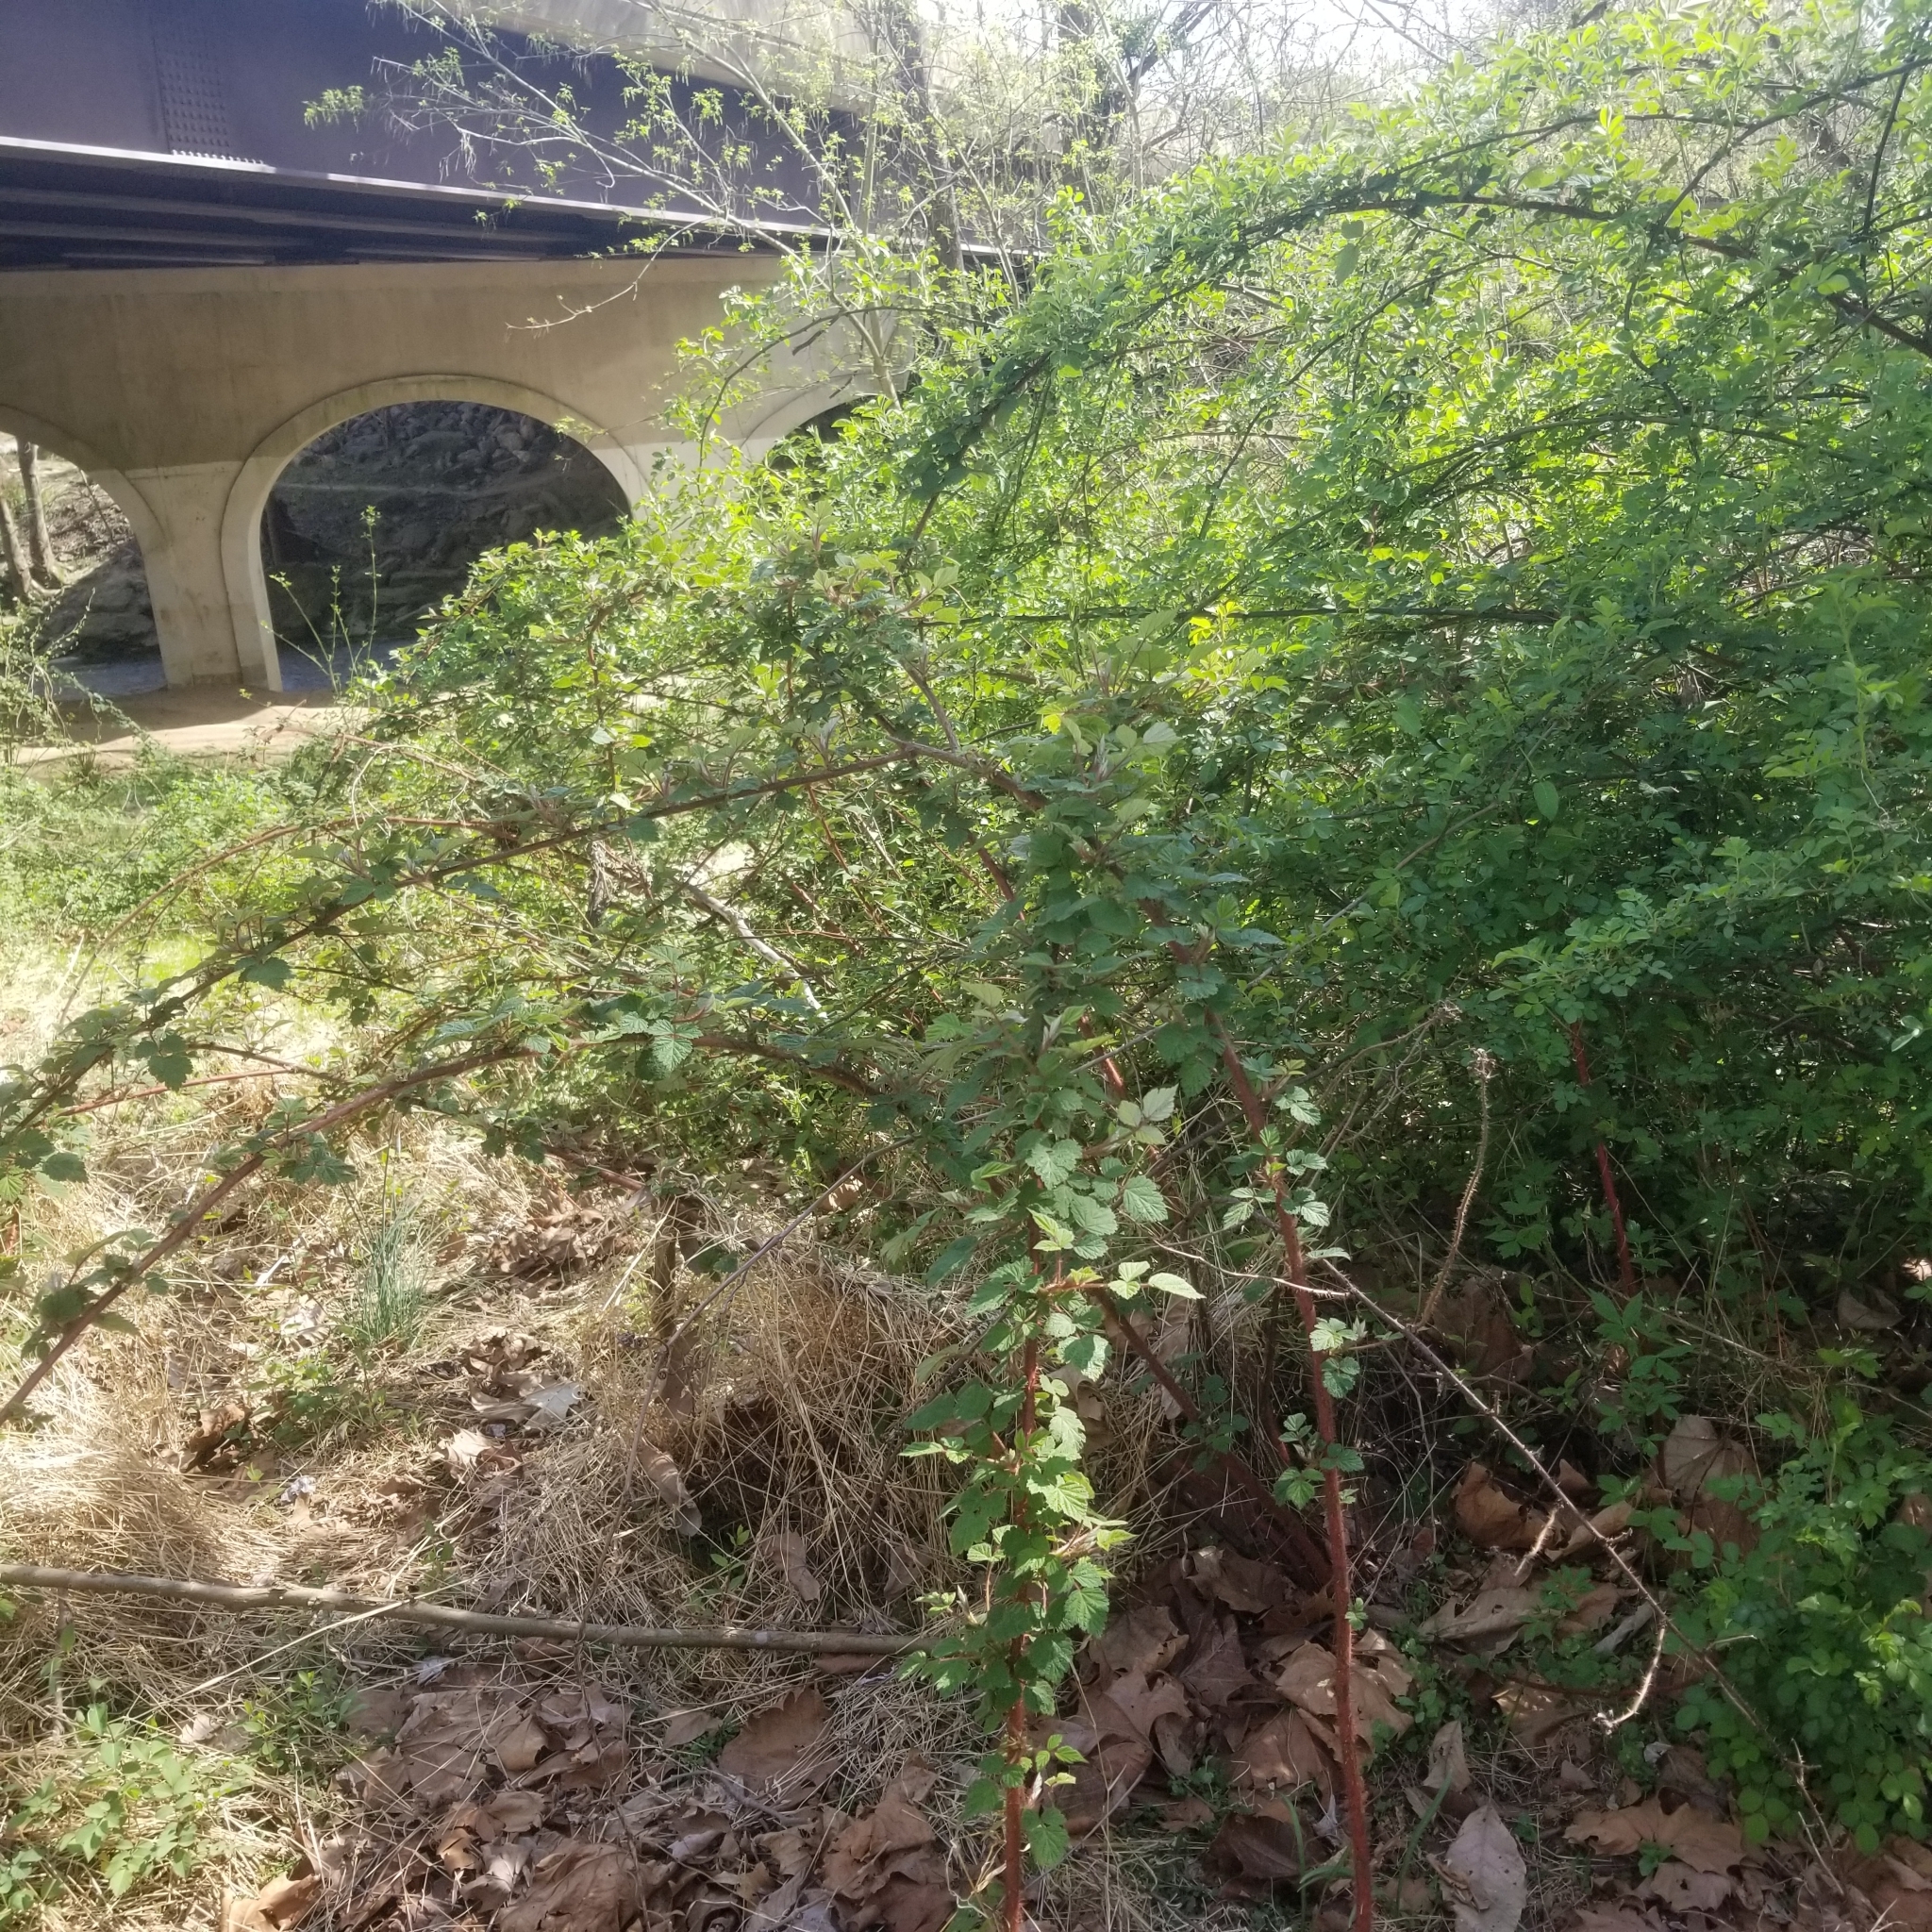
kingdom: Plantae
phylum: Tracheophyta
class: Magnoliopsida
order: Rosales
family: Rosaceae
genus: Rubus
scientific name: Rubus phoenicolasius
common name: Japanese wineberry
